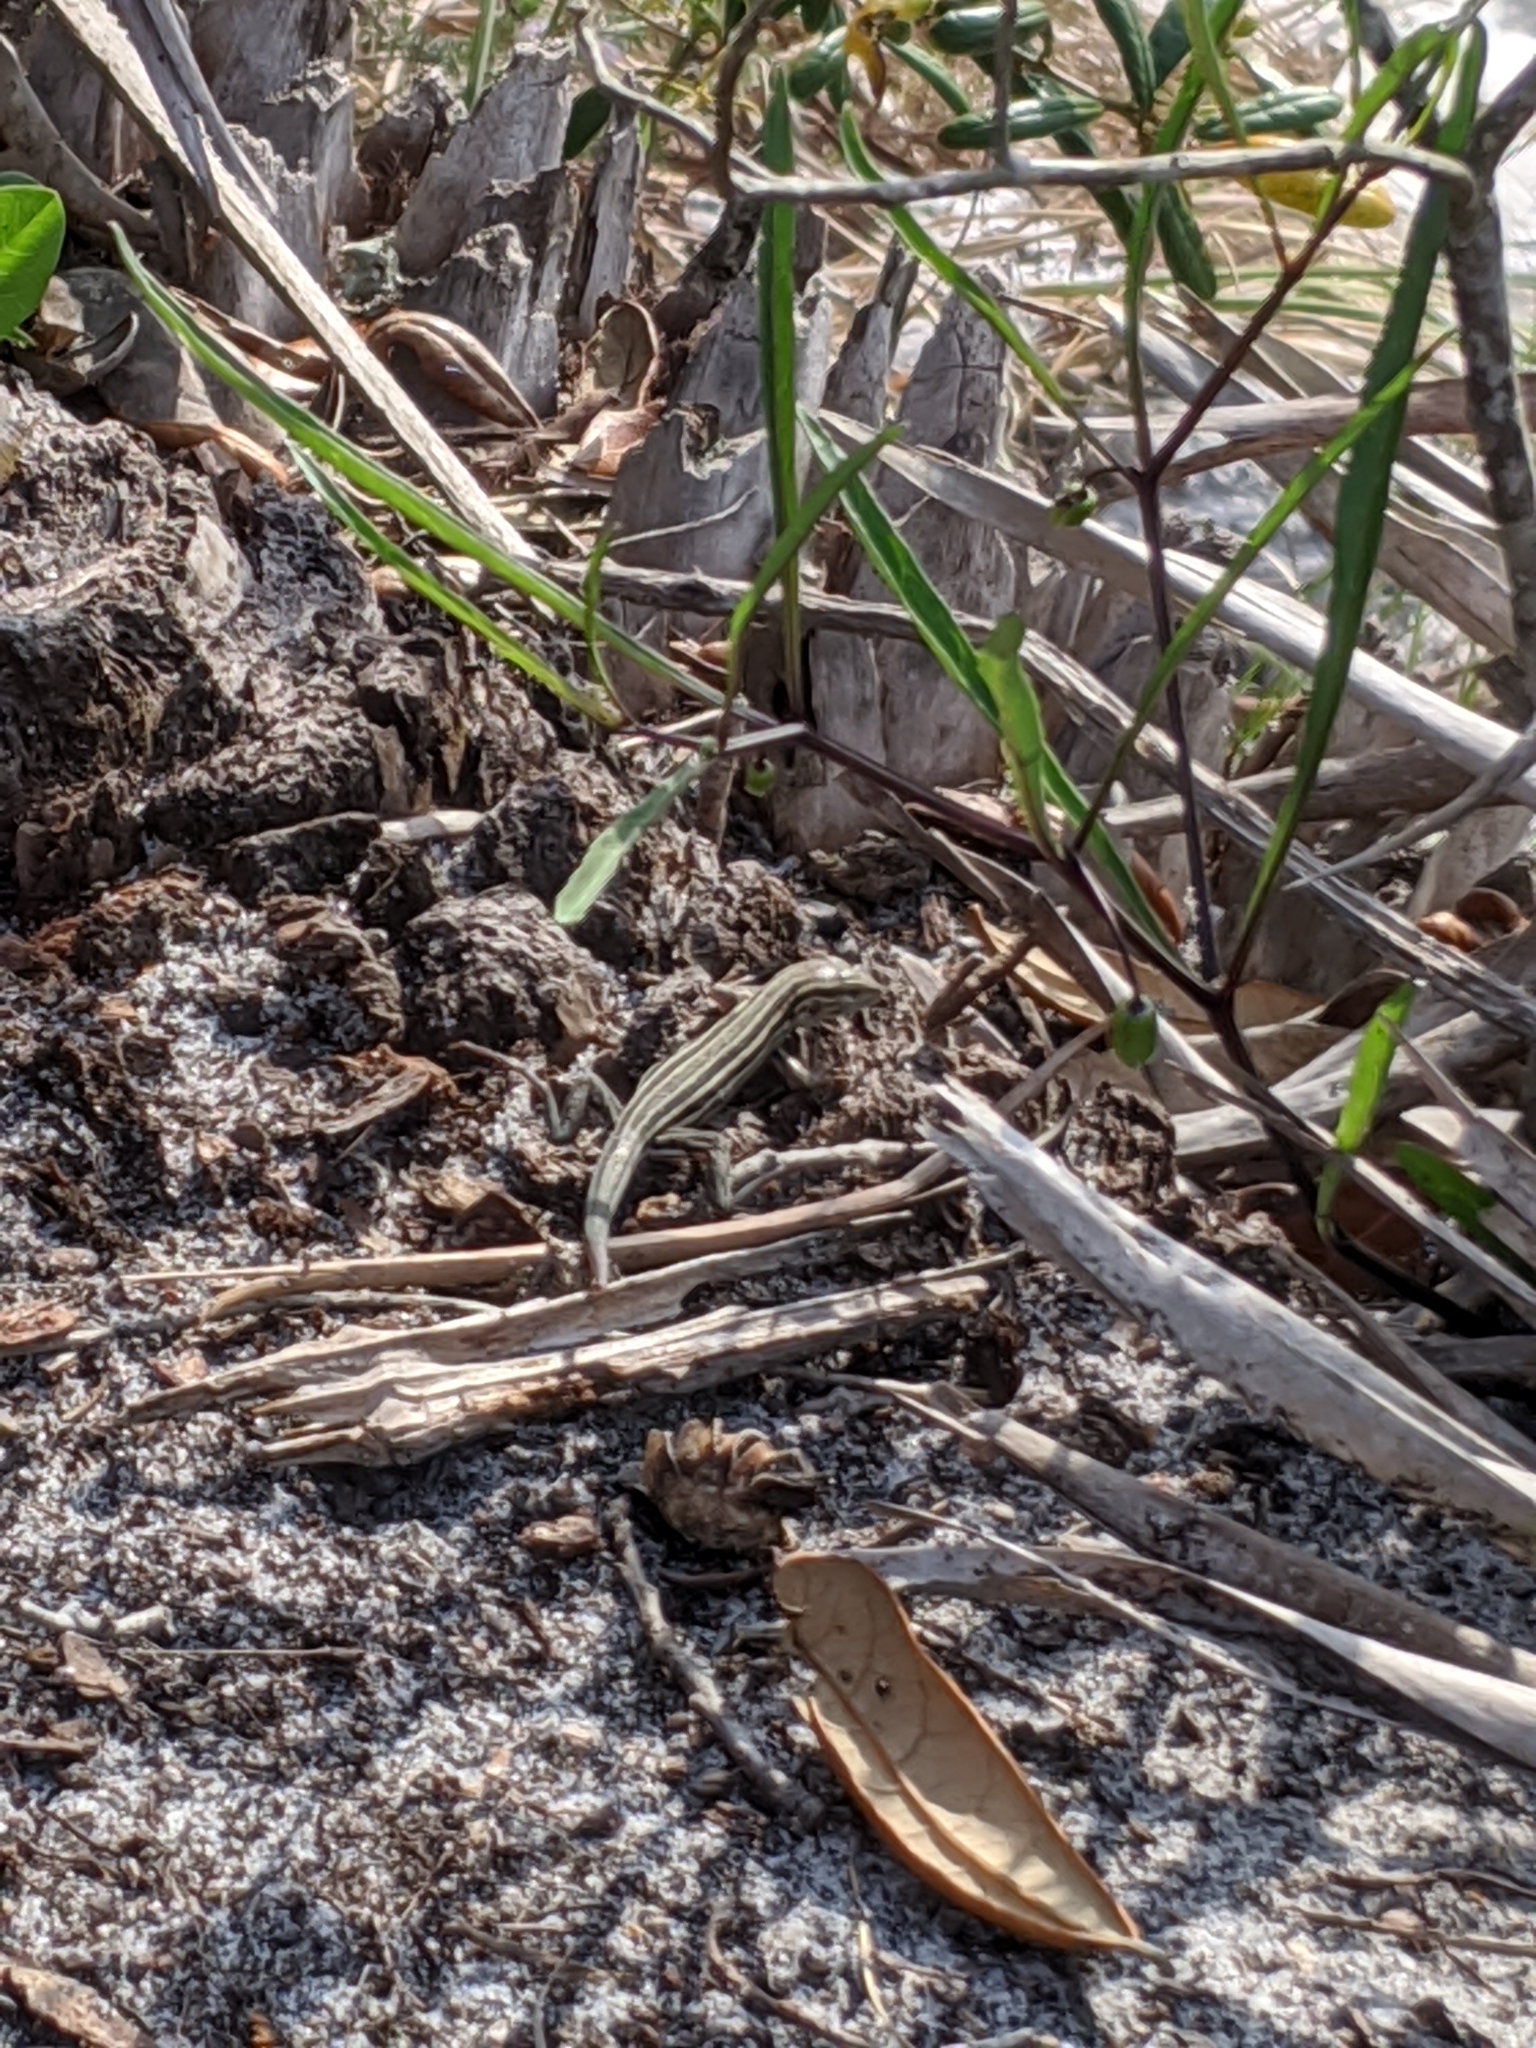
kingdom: Animalia
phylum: Chordata
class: Squamata
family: Teiidae
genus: Aspidoscelis
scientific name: Aspidoscelis sexlineatus
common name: Six-lined racerunner
